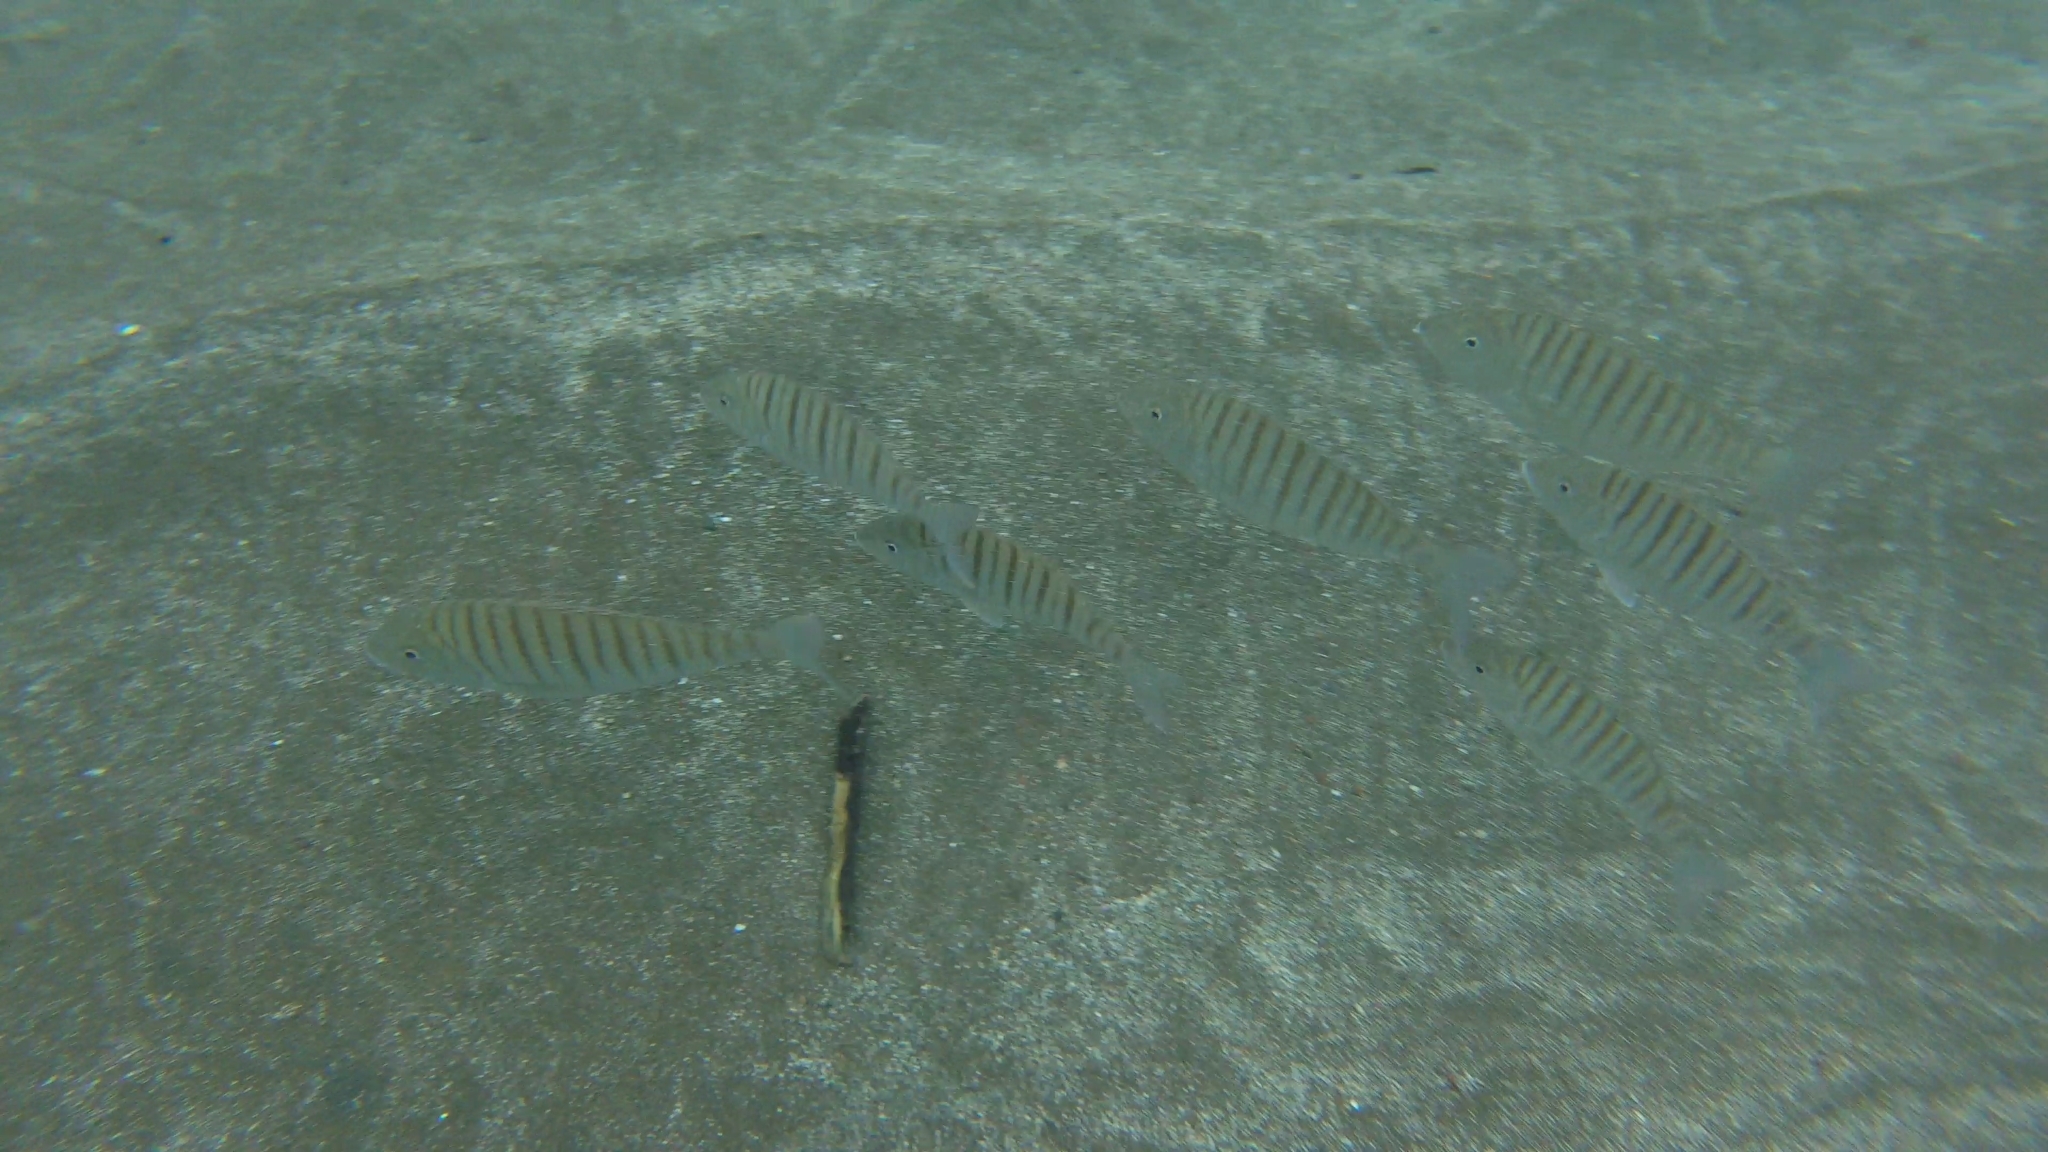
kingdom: Animalia
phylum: Chordata
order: Perciformes
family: Sparidae
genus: Lithognathus
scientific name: Lithognathus mormyrus
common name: Sand steenbras
